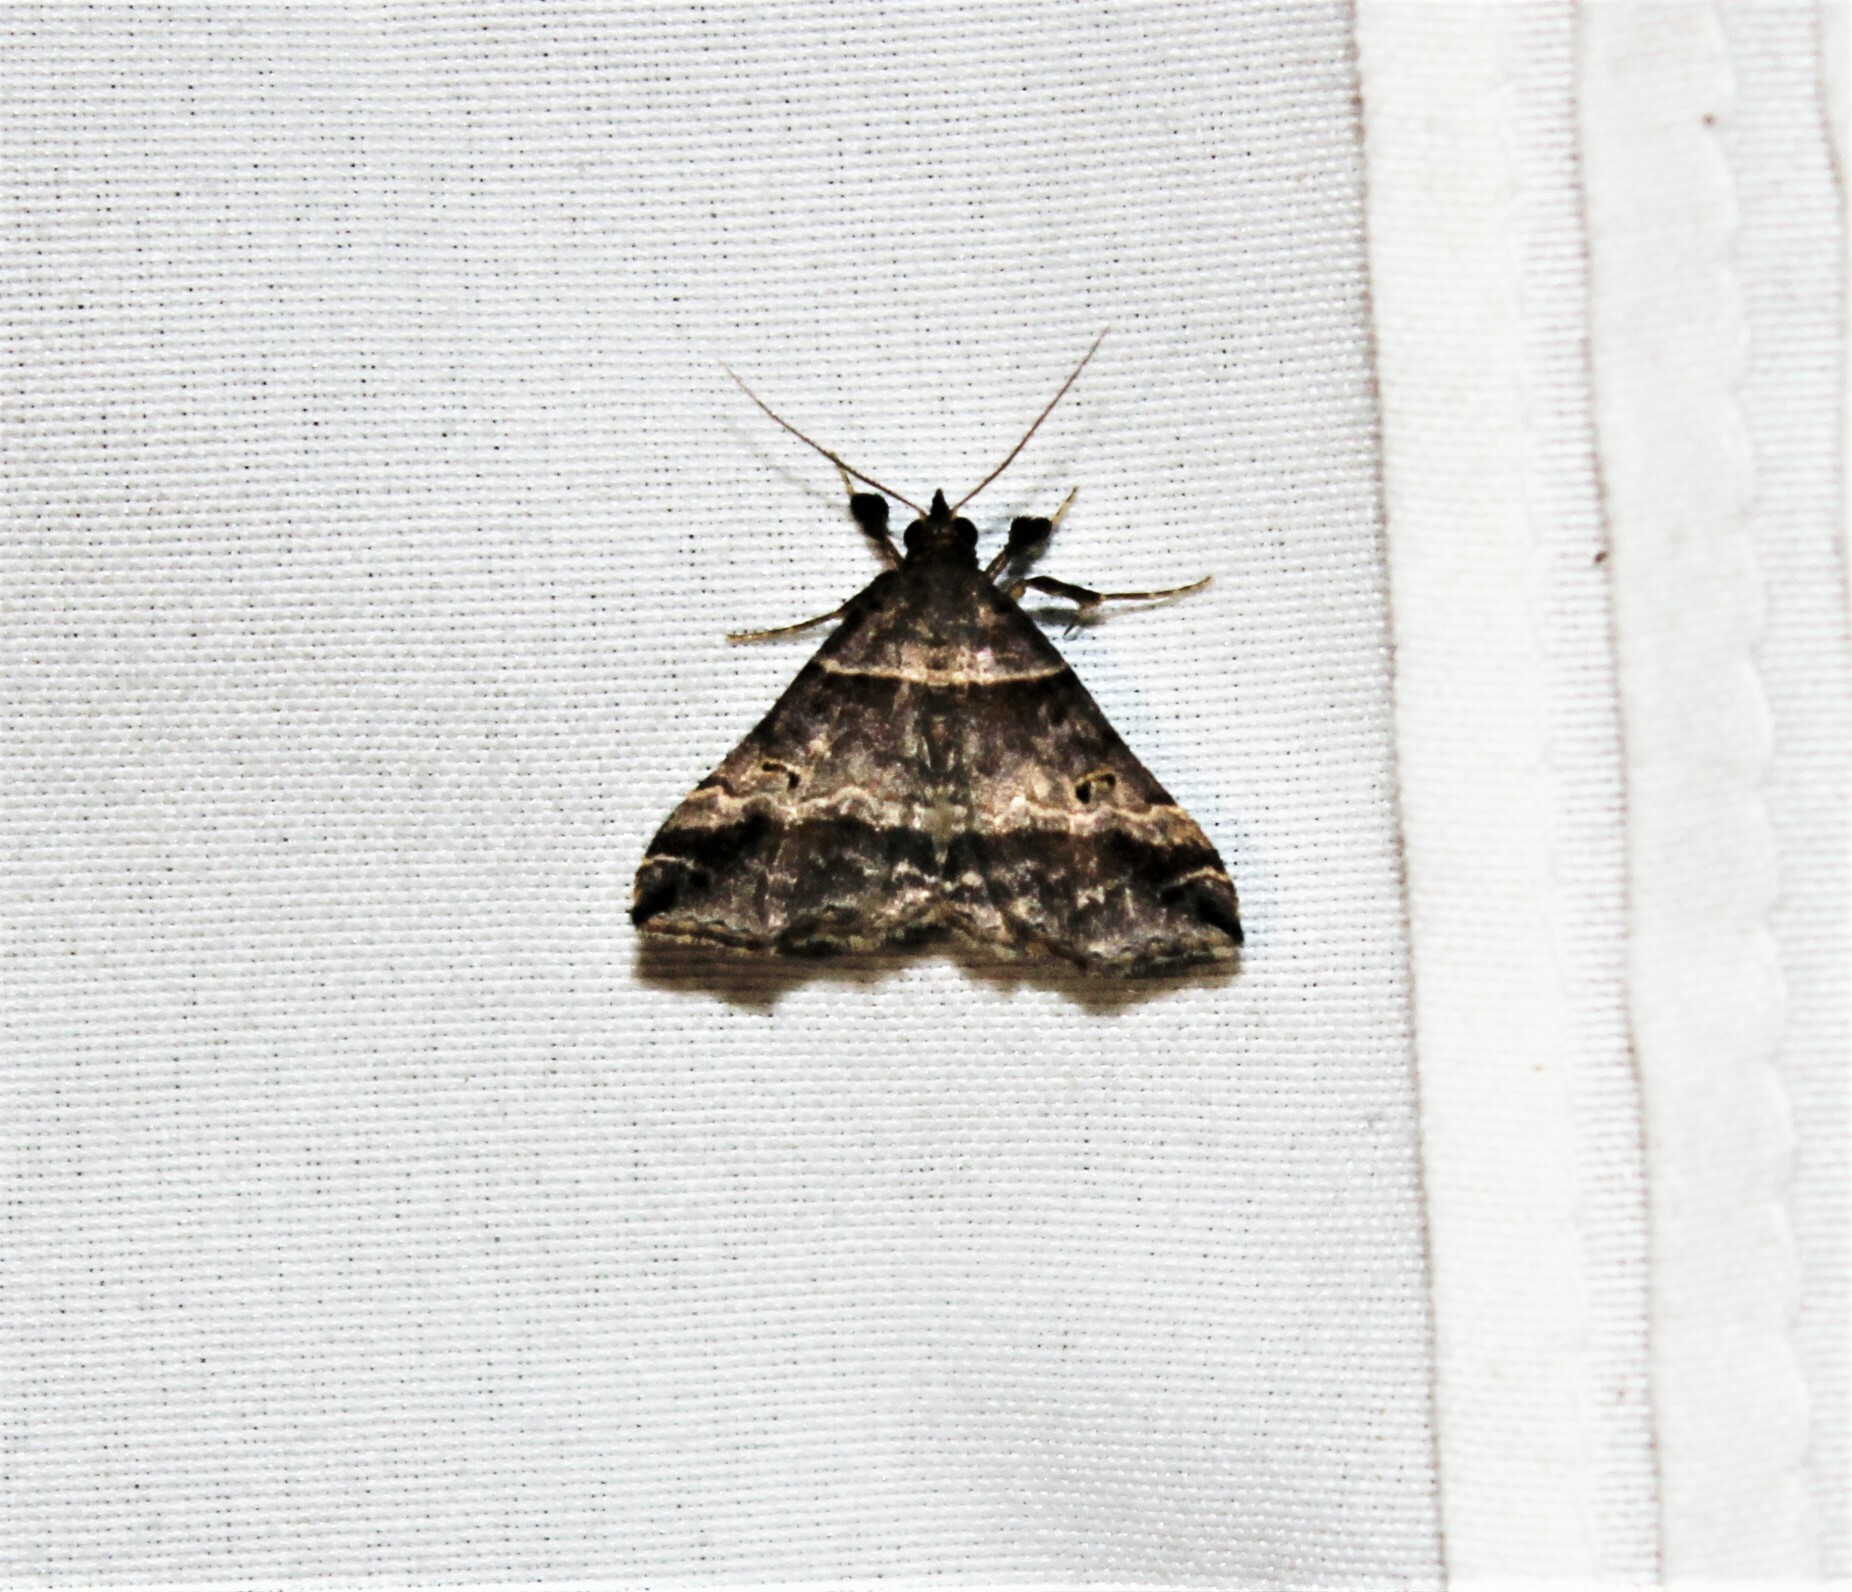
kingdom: Animalia
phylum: Arthropoda
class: Insecta
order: Lepidoptera
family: Erebidae
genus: Phaeolita
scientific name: Phaeolita pyramusalis
